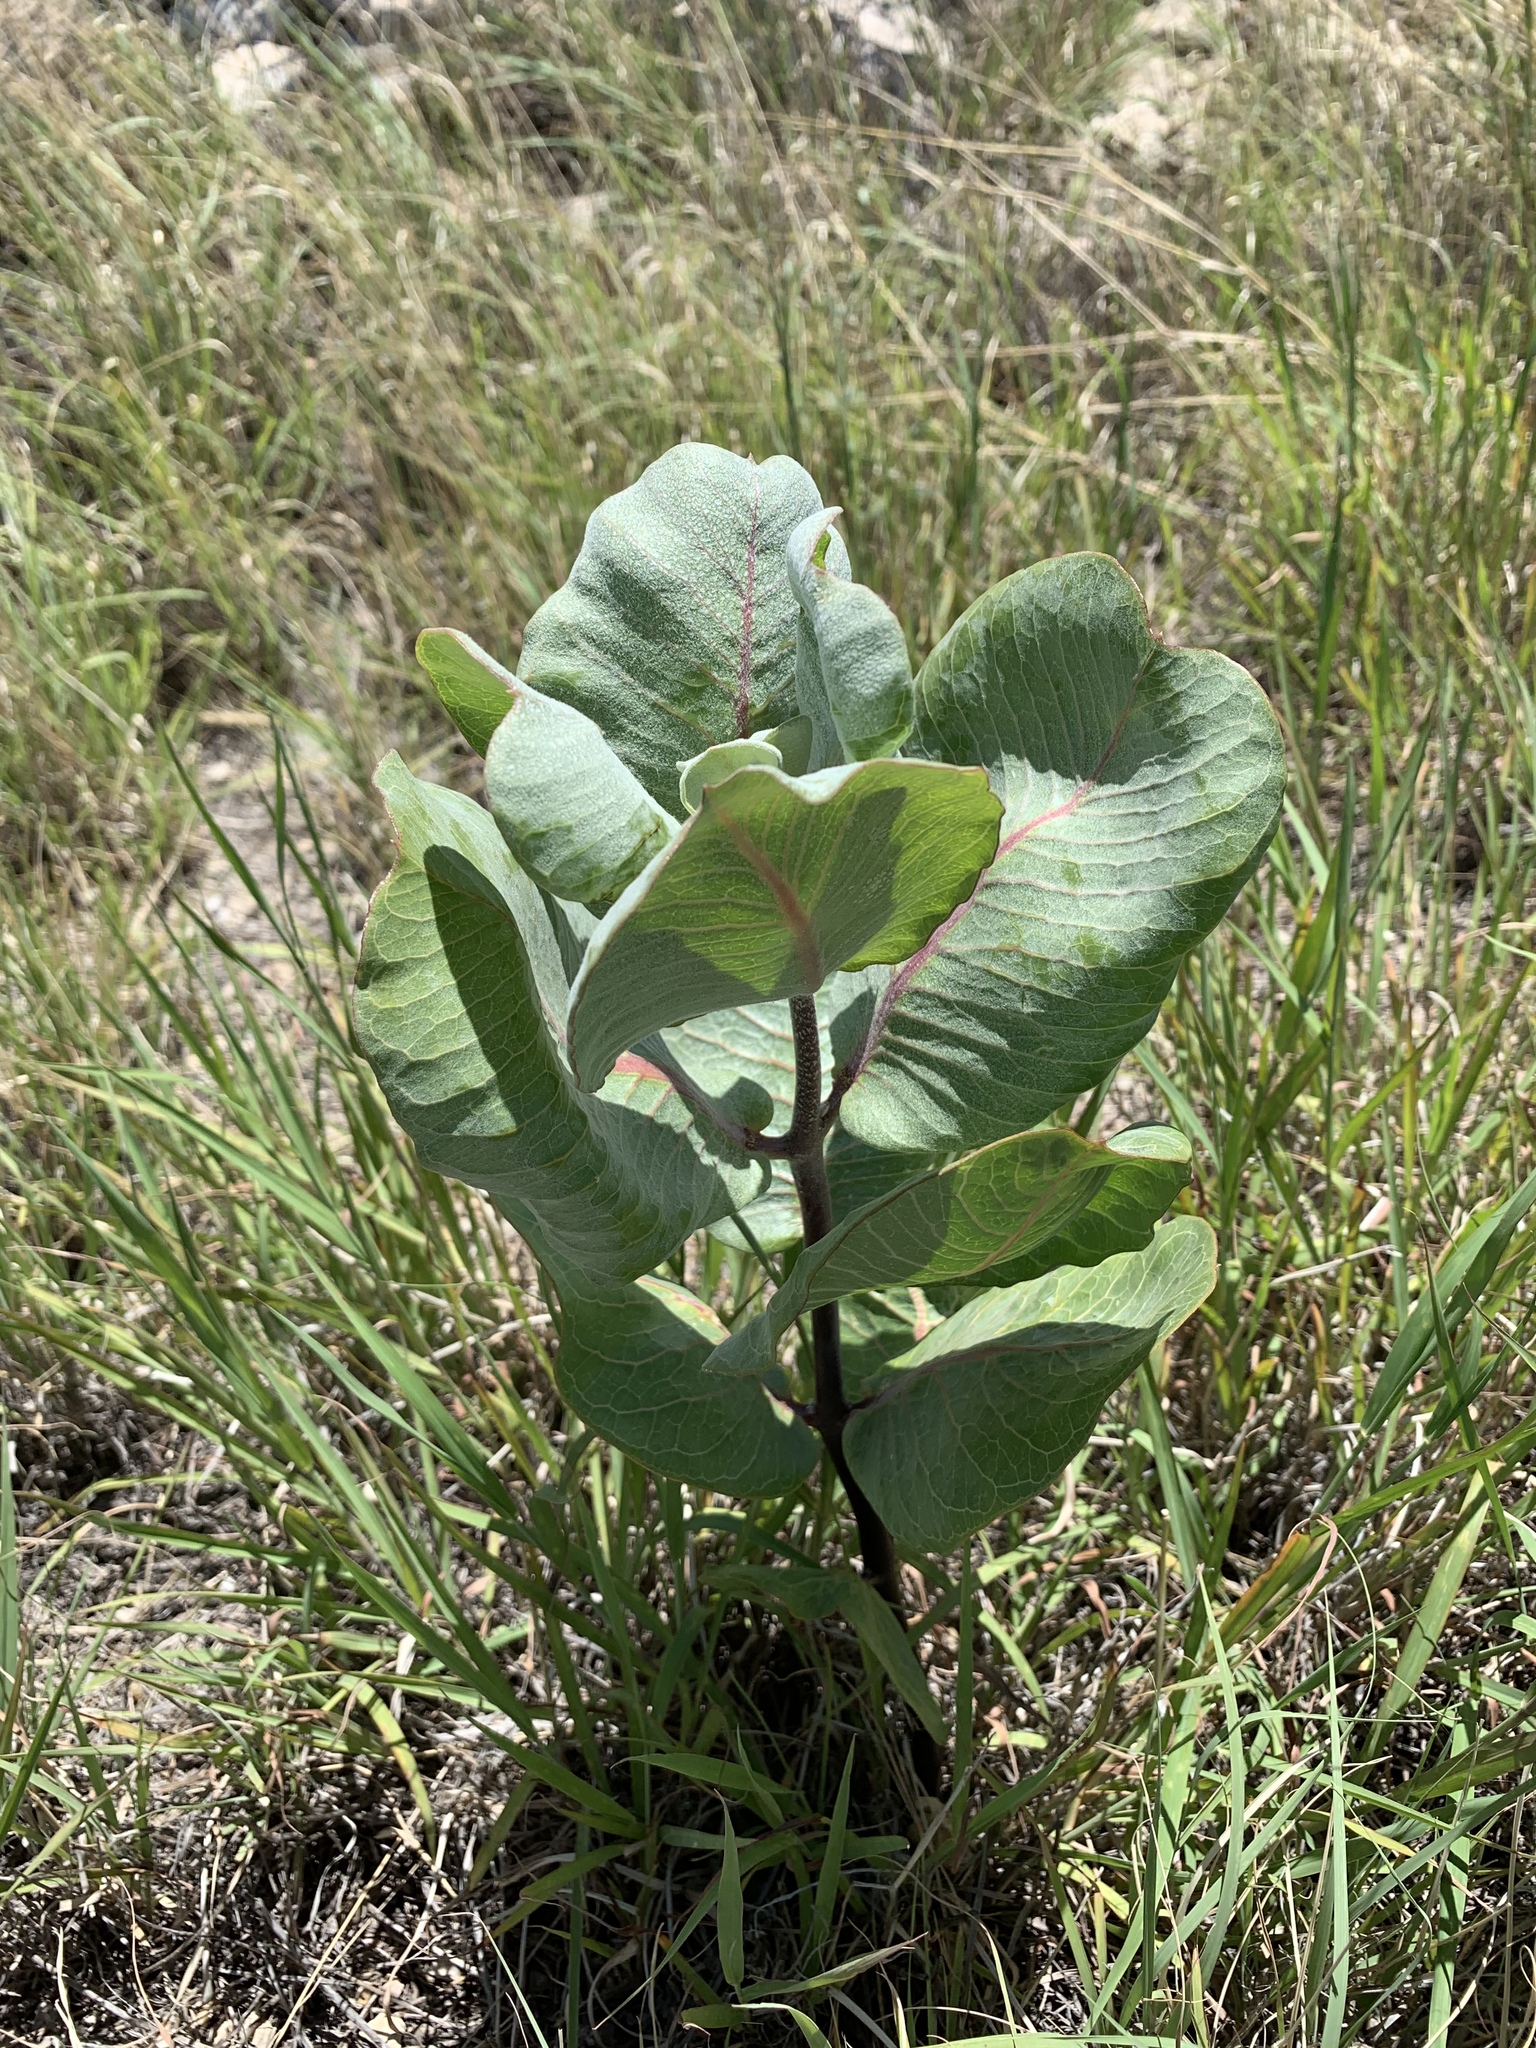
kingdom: Plantae
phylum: Tracheophyta
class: Magnoliopsida
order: Gentianales
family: Apocynaceae
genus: Asclepias
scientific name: Asclepias latifolia
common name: Broadleaf milkweed
